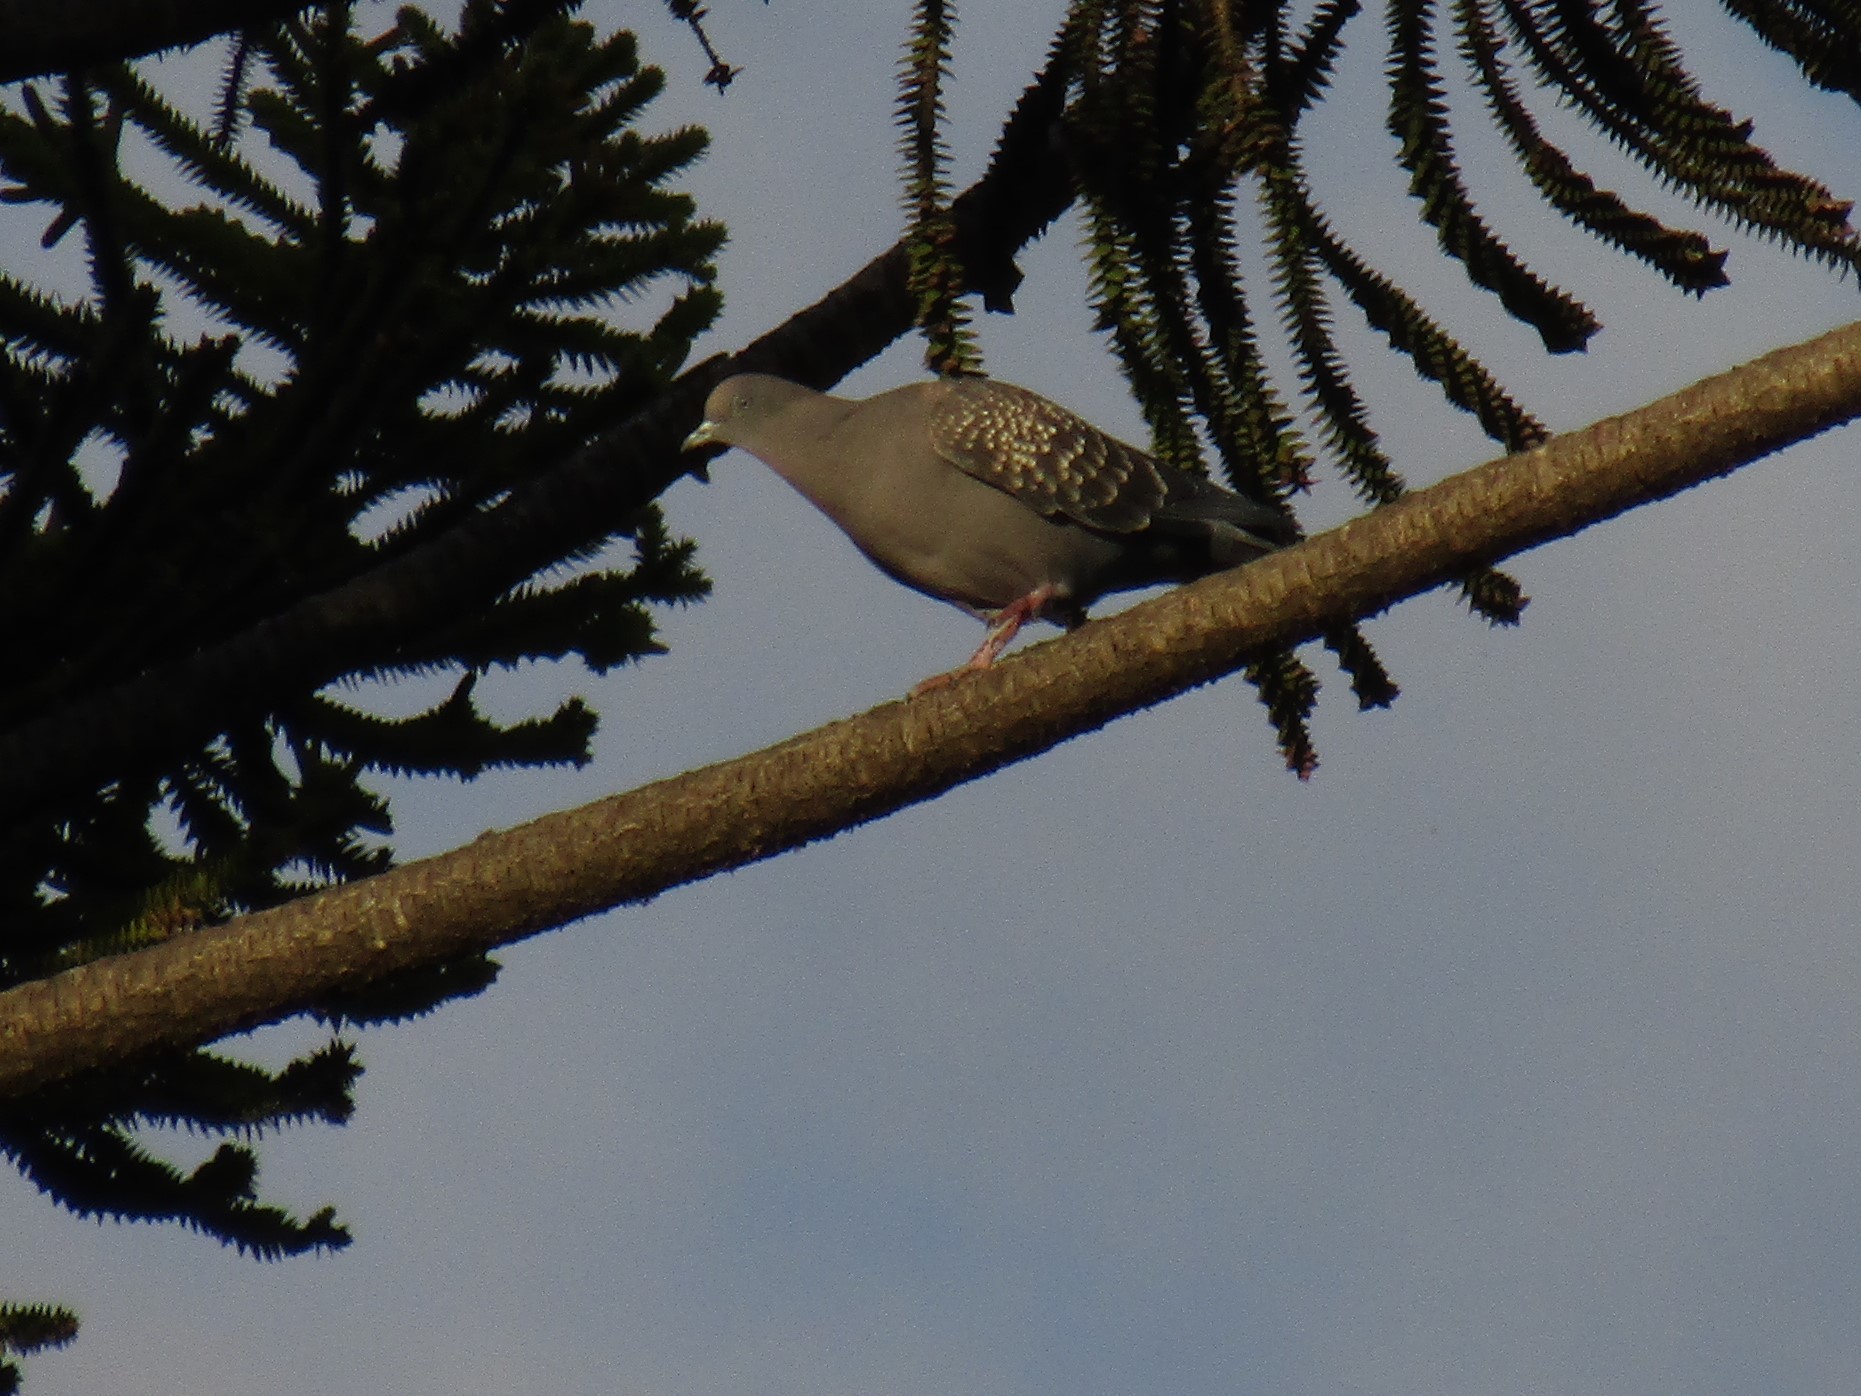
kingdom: Animalia
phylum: Chordata
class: Aves
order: Columbiformes
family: Columbidae
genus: Patagioenas
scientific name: Patagioenas maculosa
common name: Spot-winged pigeon
